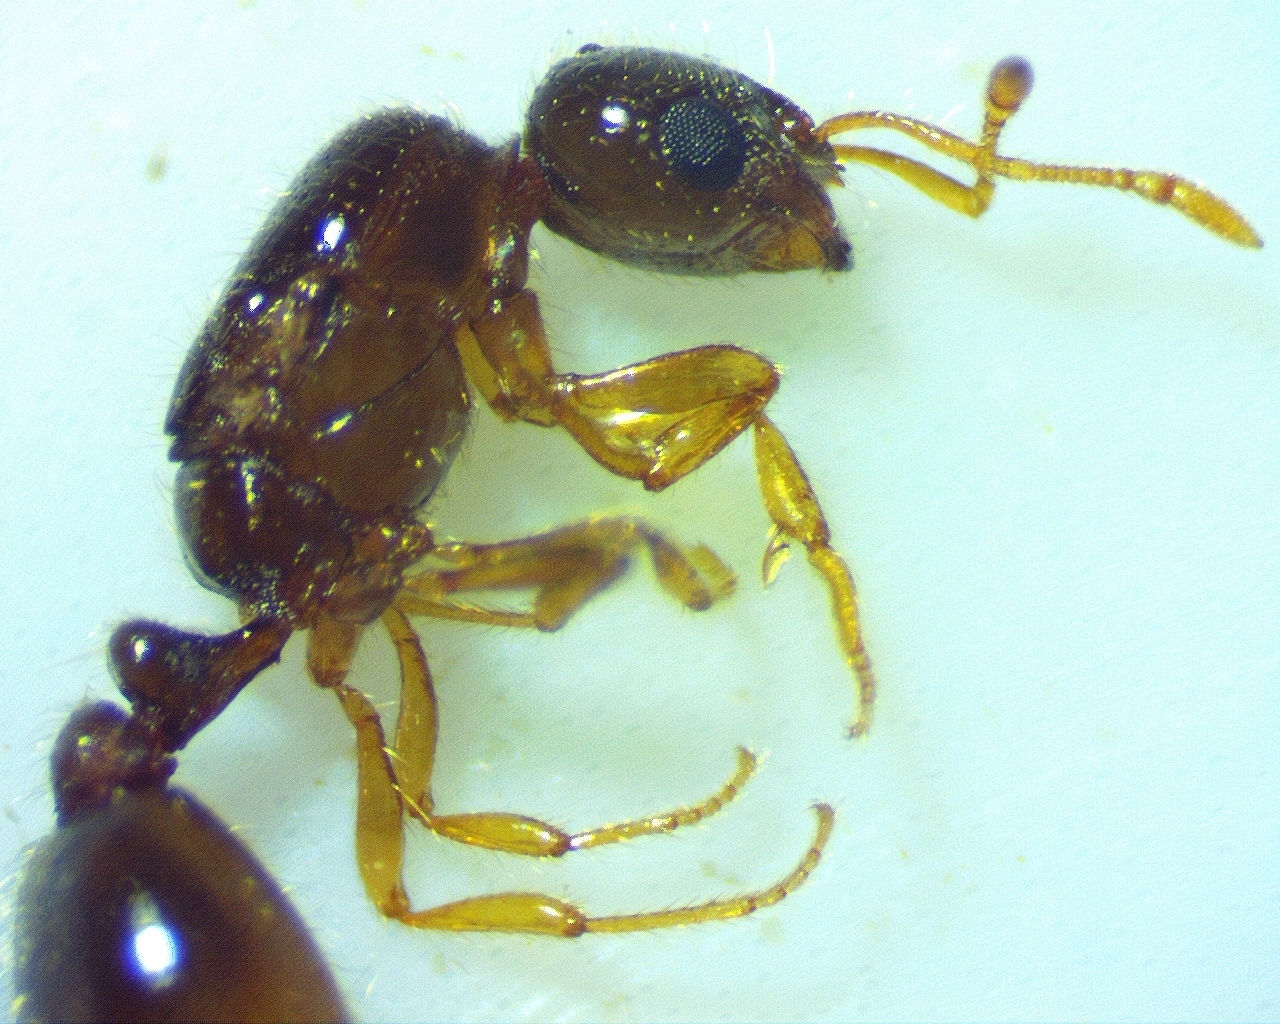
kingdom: Animalia
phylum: Arthropoda
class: Insecta
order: Hymenoptera
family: Formicidae
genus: Solenopsis
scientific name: Solenopsis abdita
